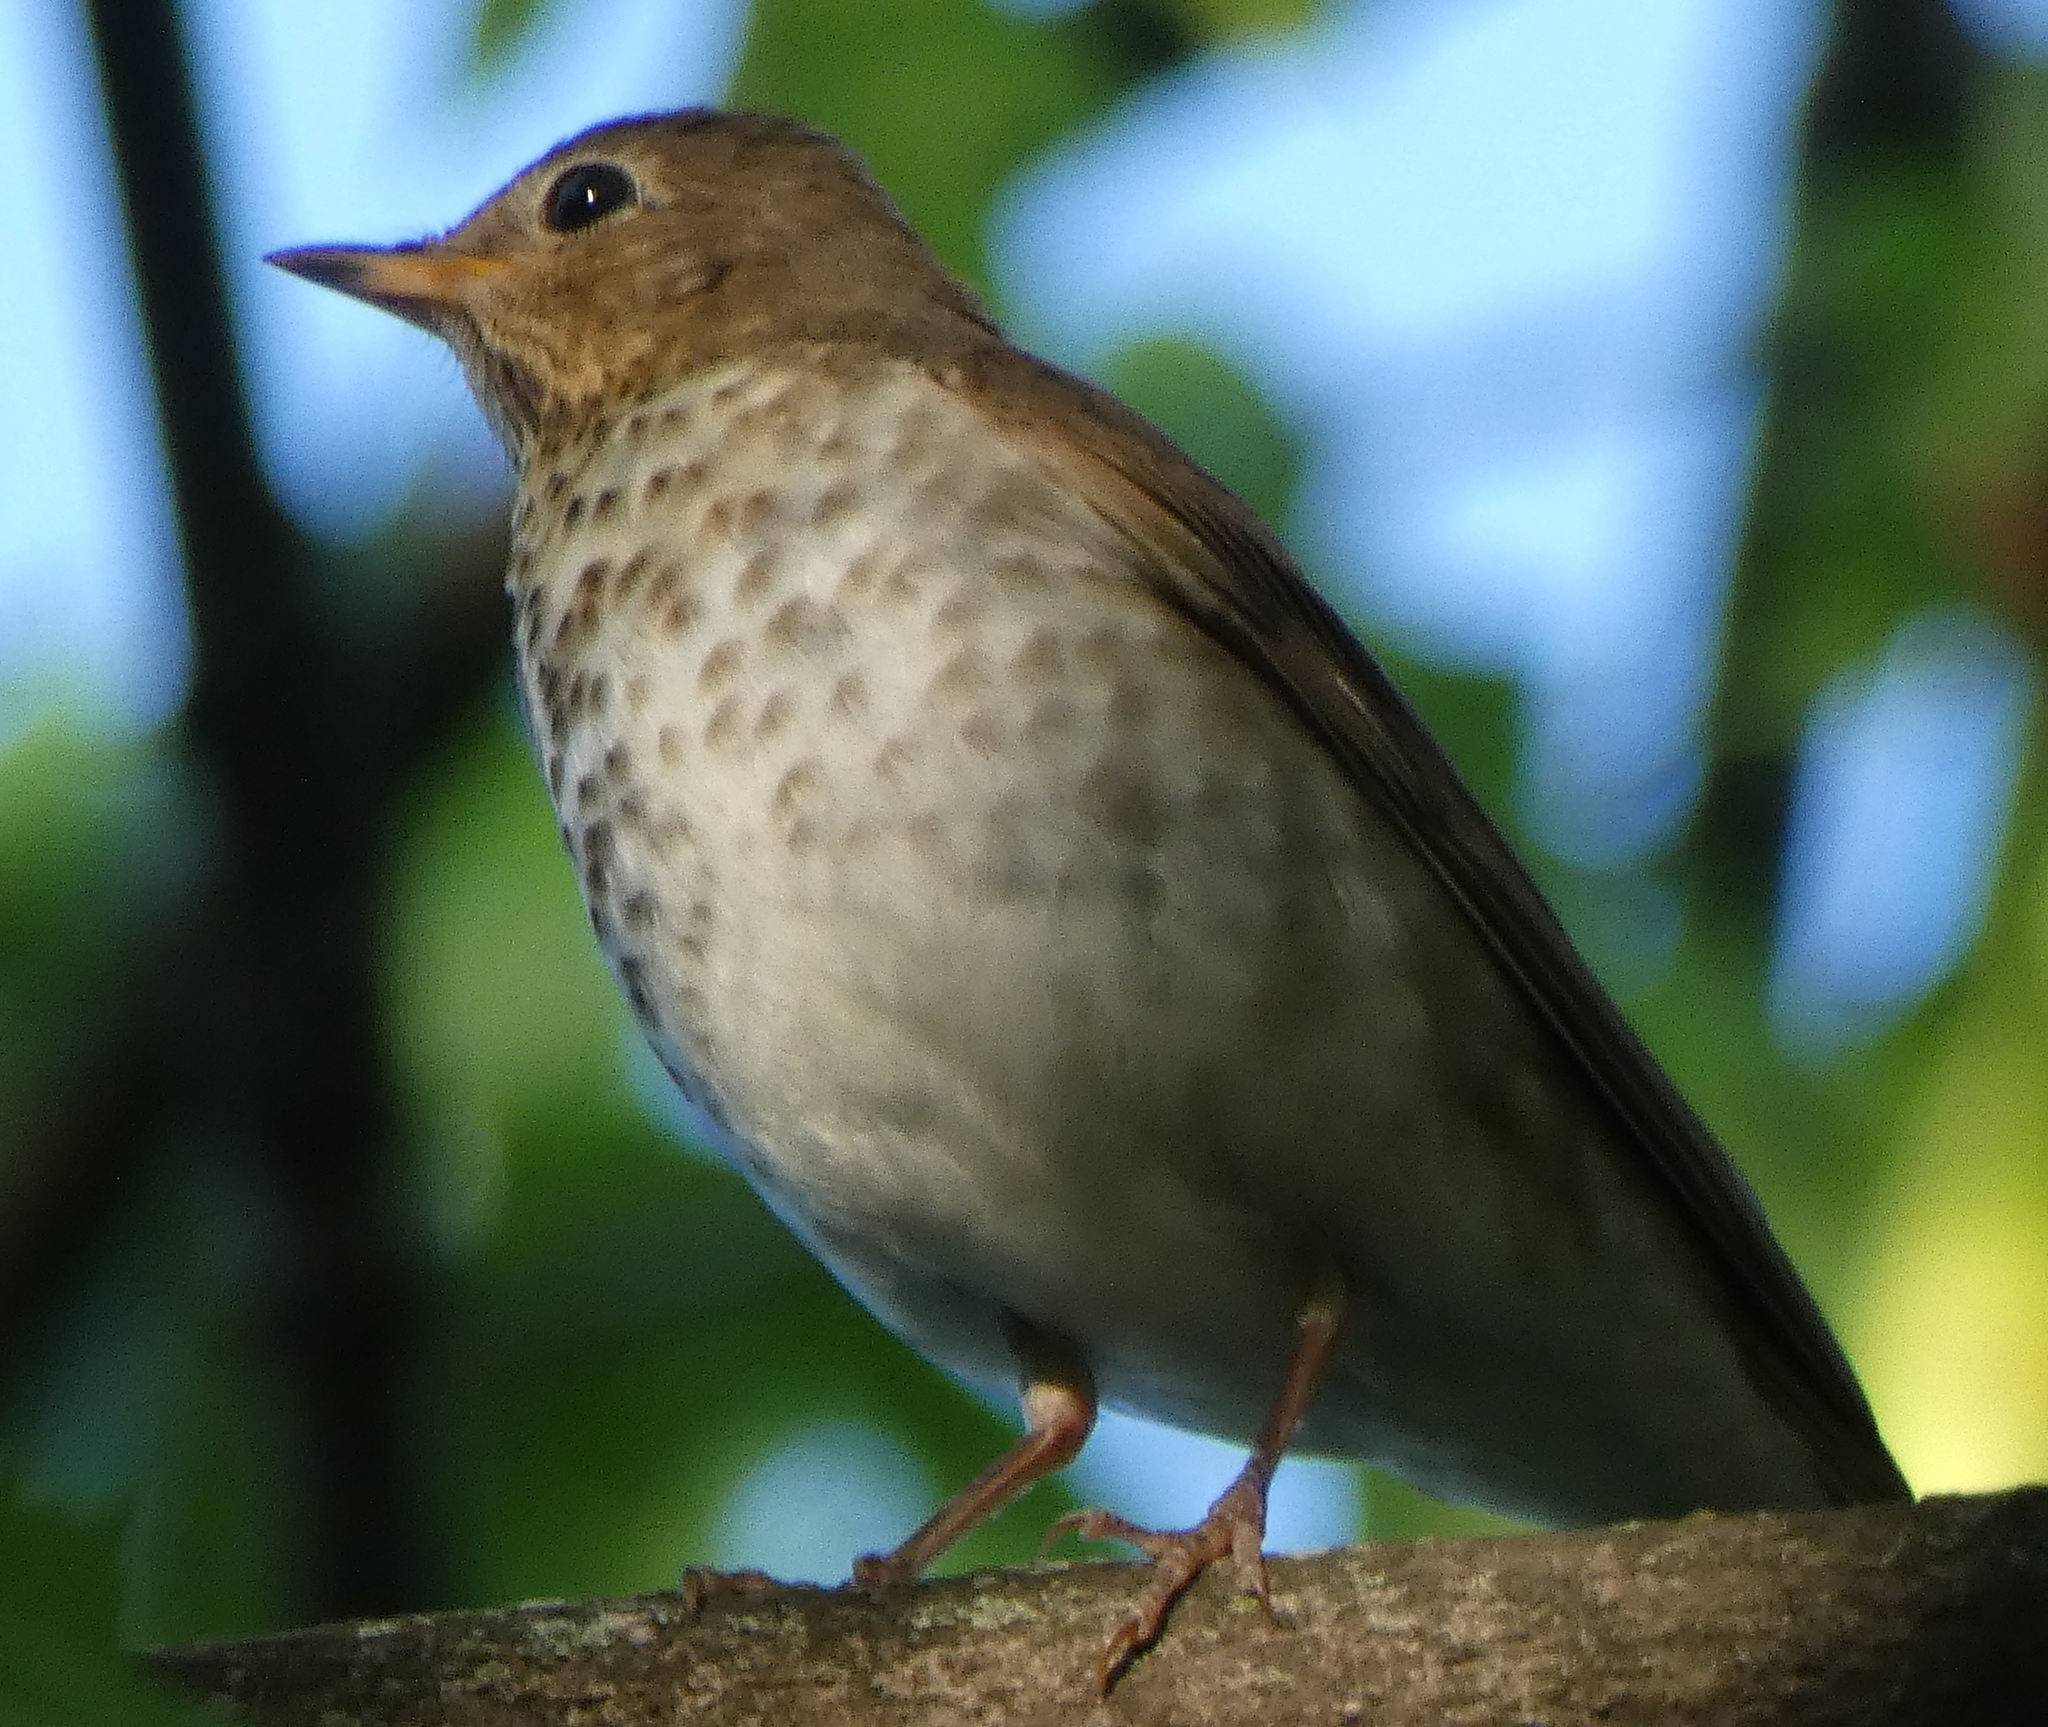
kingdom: Animalia
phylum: Chordata
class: Aves
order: Passeriformes
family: Turdidae
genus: Catharus
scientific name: Catharus ustulatus
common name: Swainson's thrush
